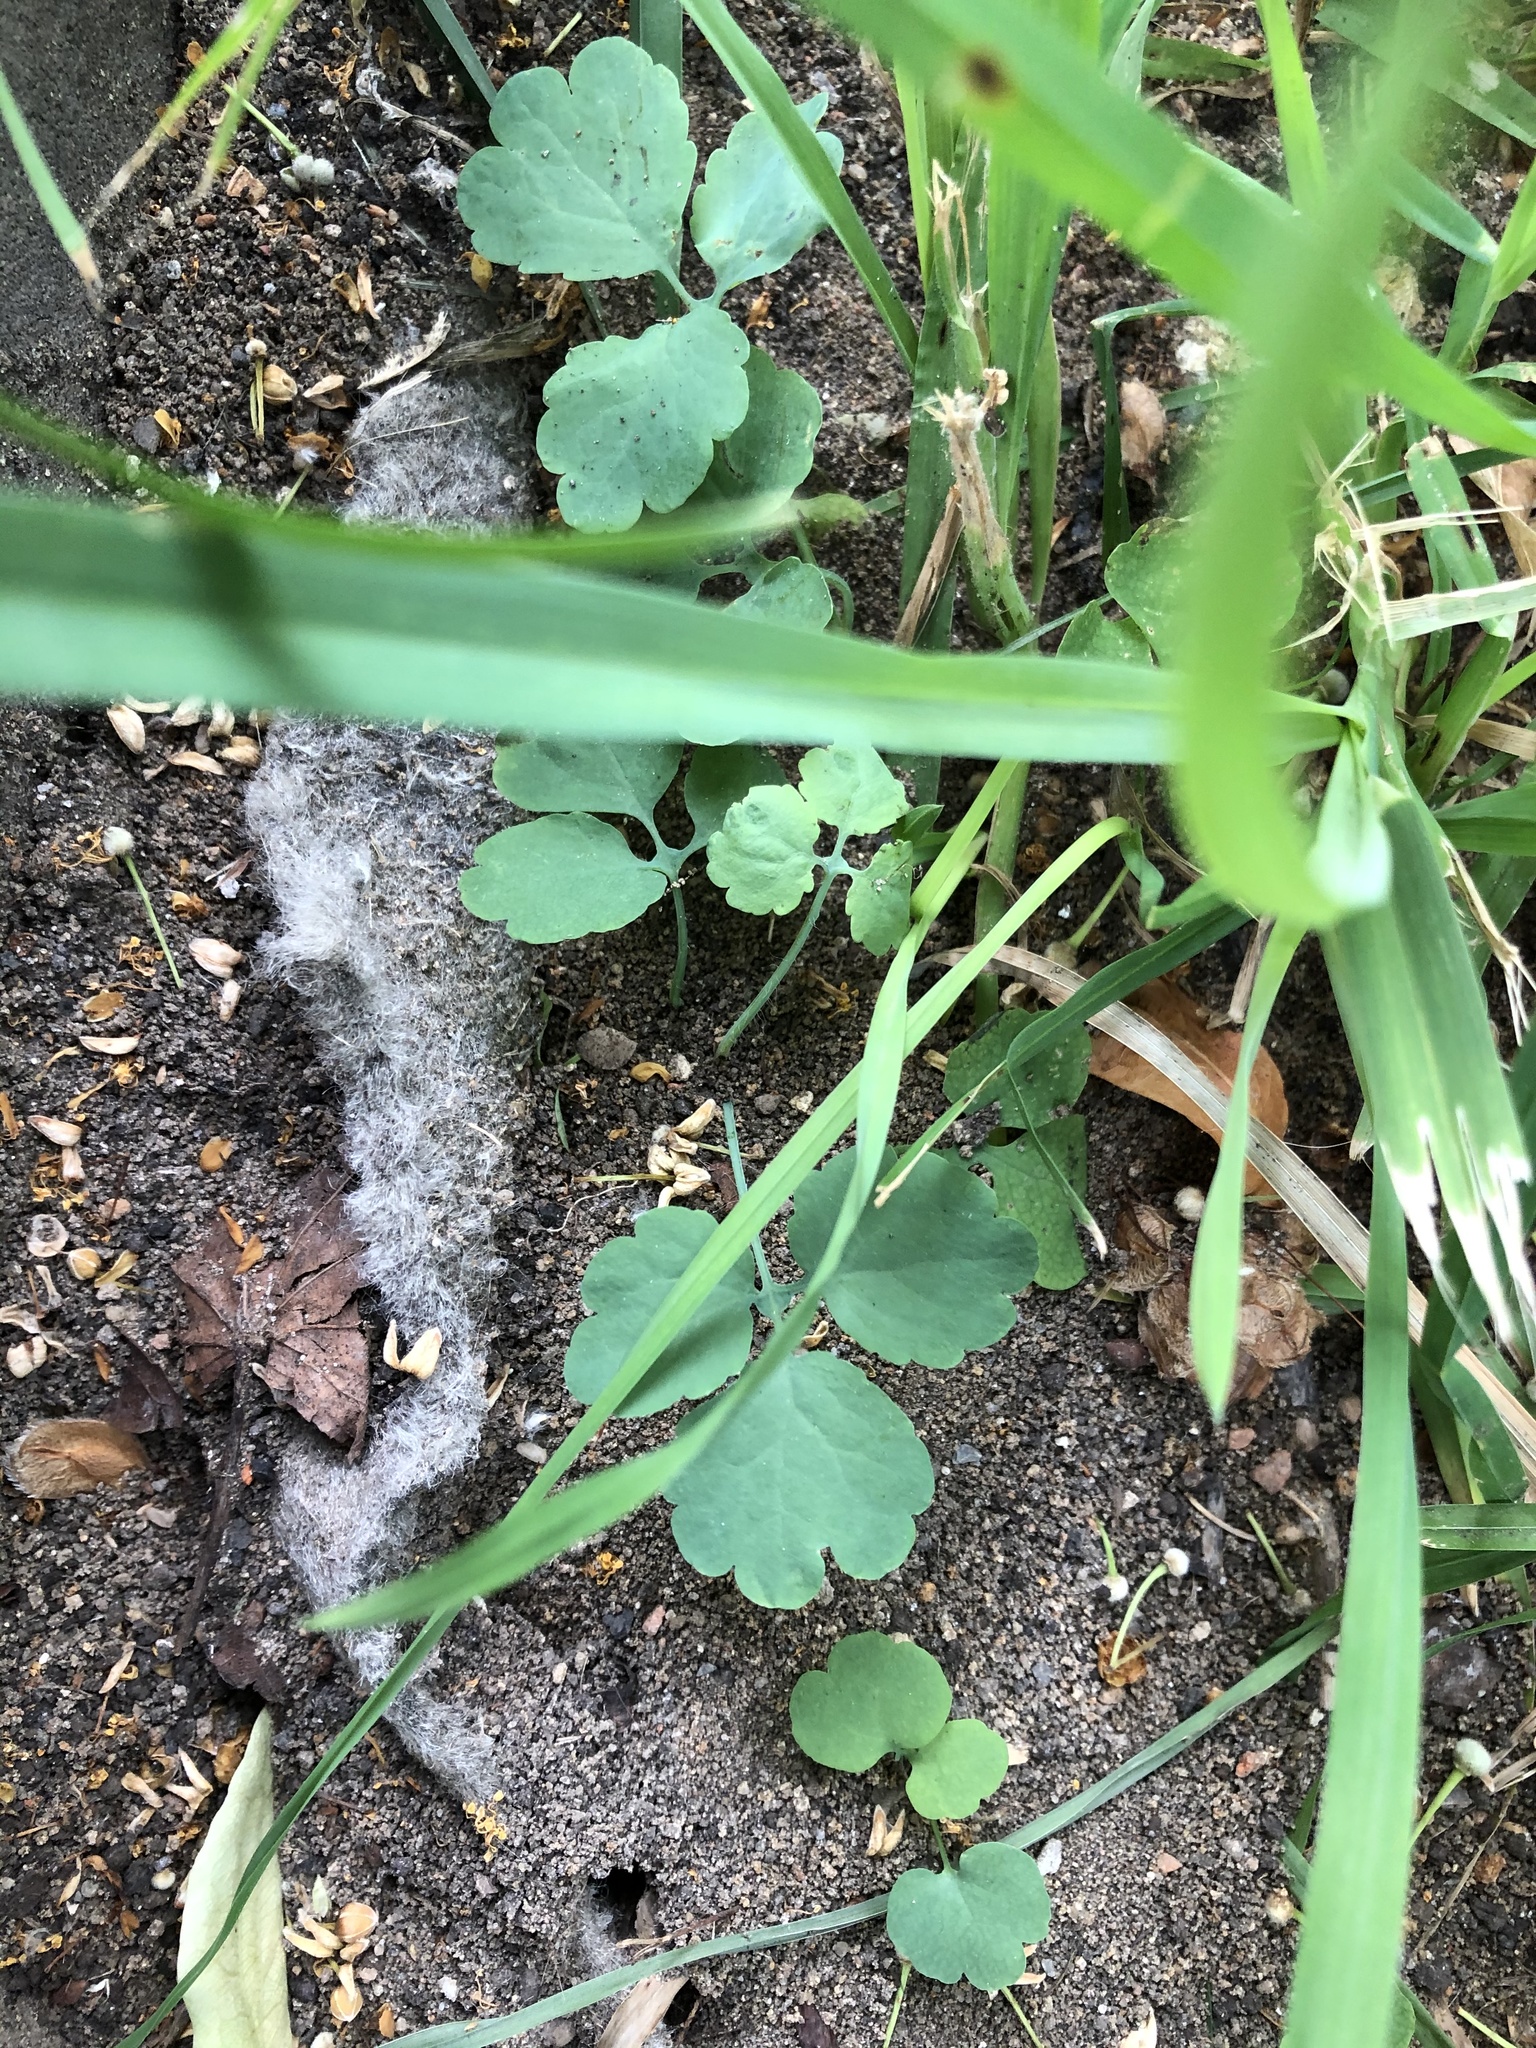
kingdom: Plantae
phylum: Tracheophyta
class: Magnoliopsida
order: Ranunculales
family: Papaveraceae
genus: Chelidonium
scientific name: Chelidonium majus
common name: Greater celandine
